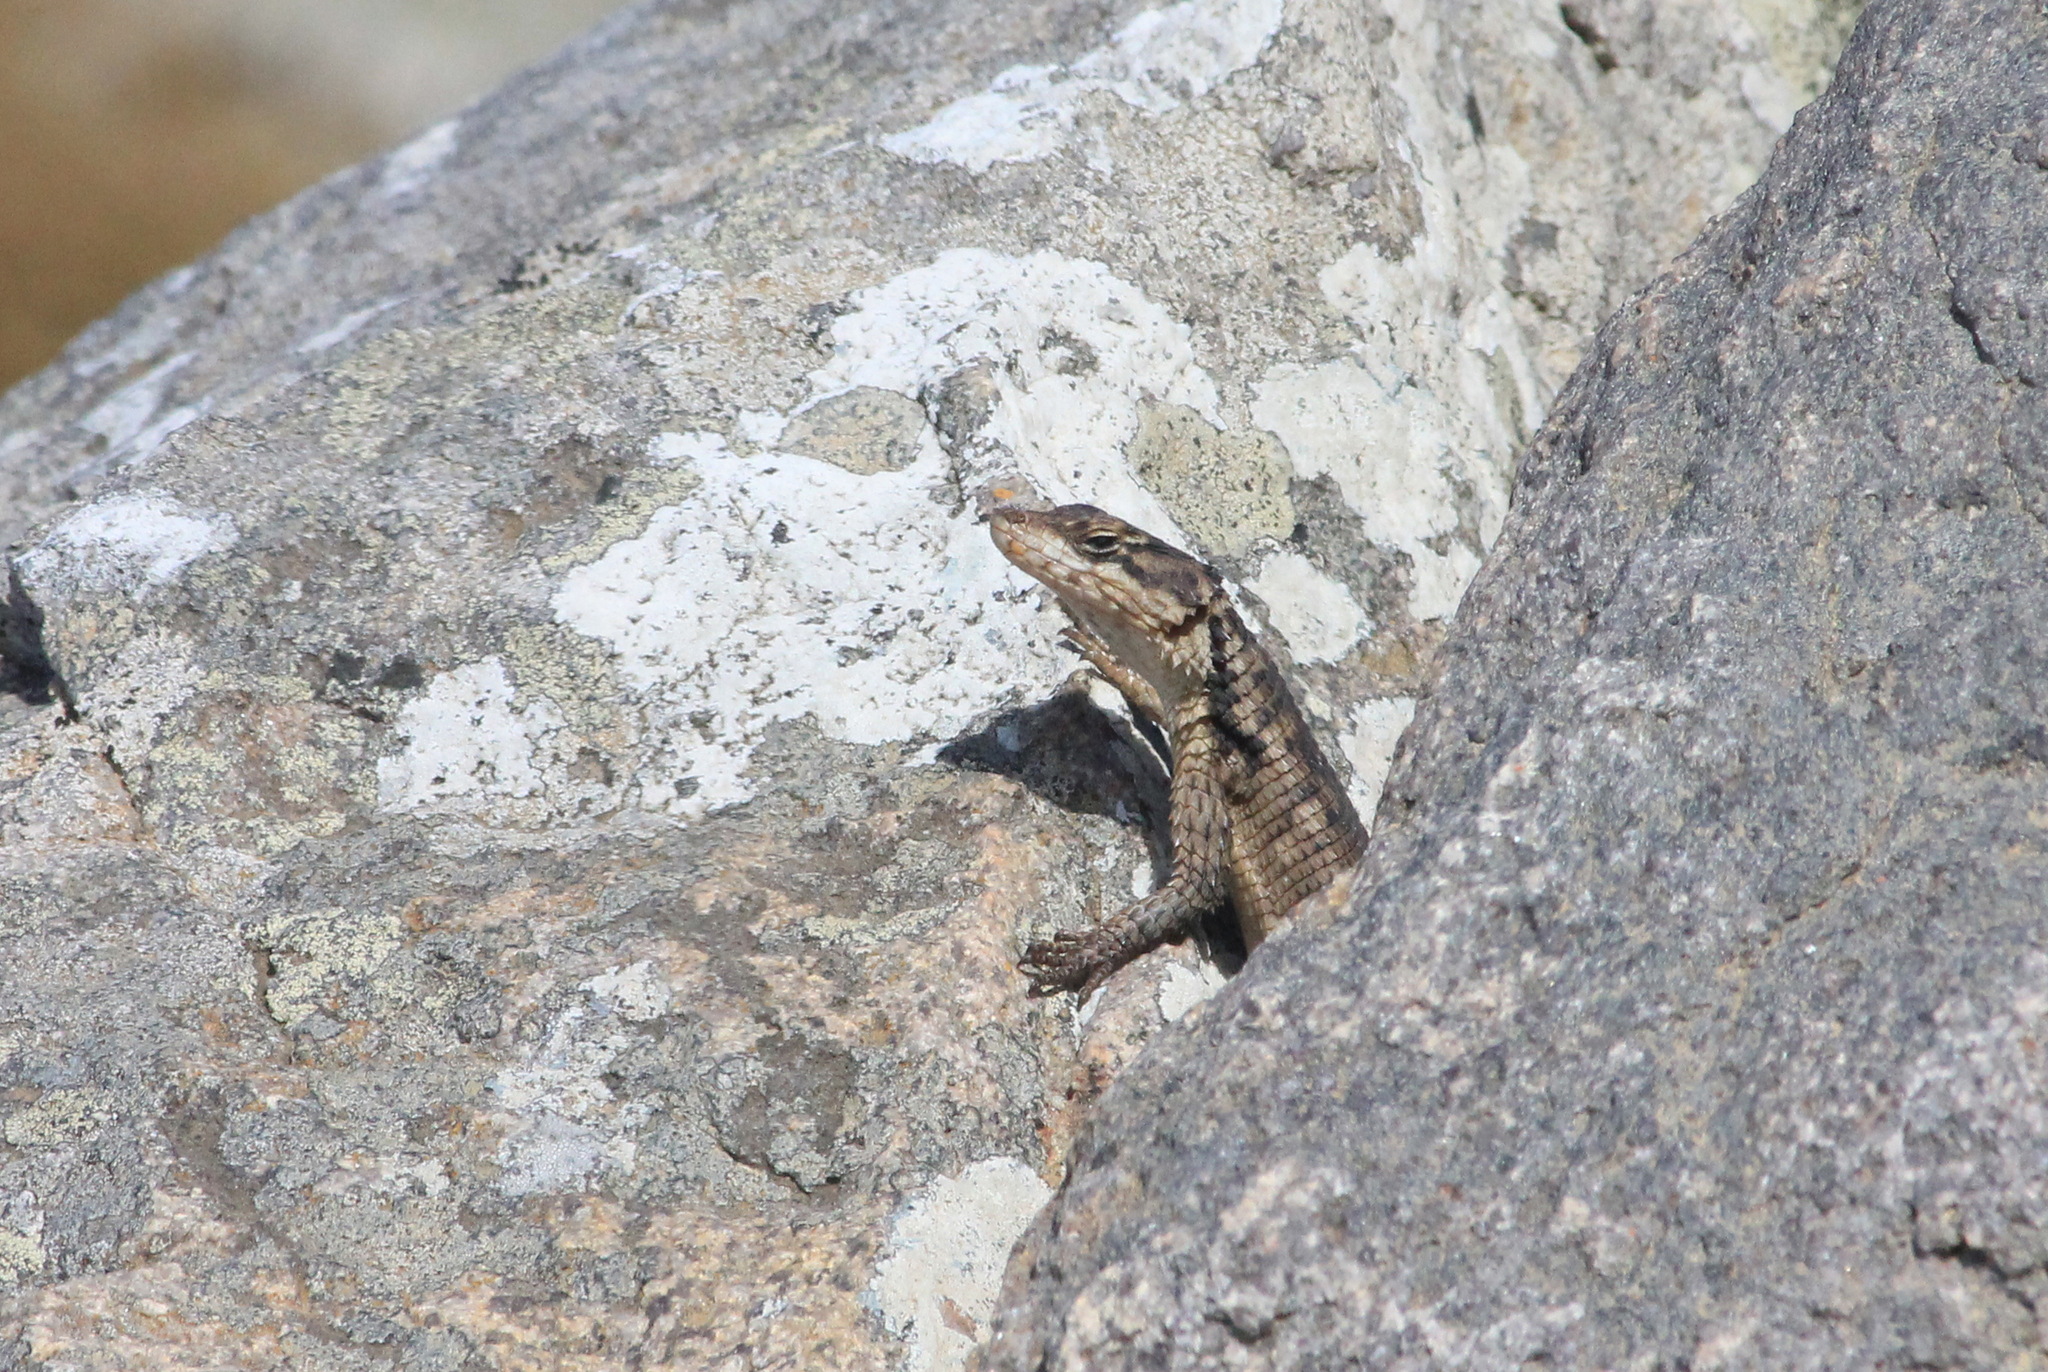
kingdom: Animalia
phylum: Chordata
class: Squamata
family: Cordylidae
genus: Karusasaurus
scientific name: Karusasaurus polyzonus
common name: Karoo girdled lizard
